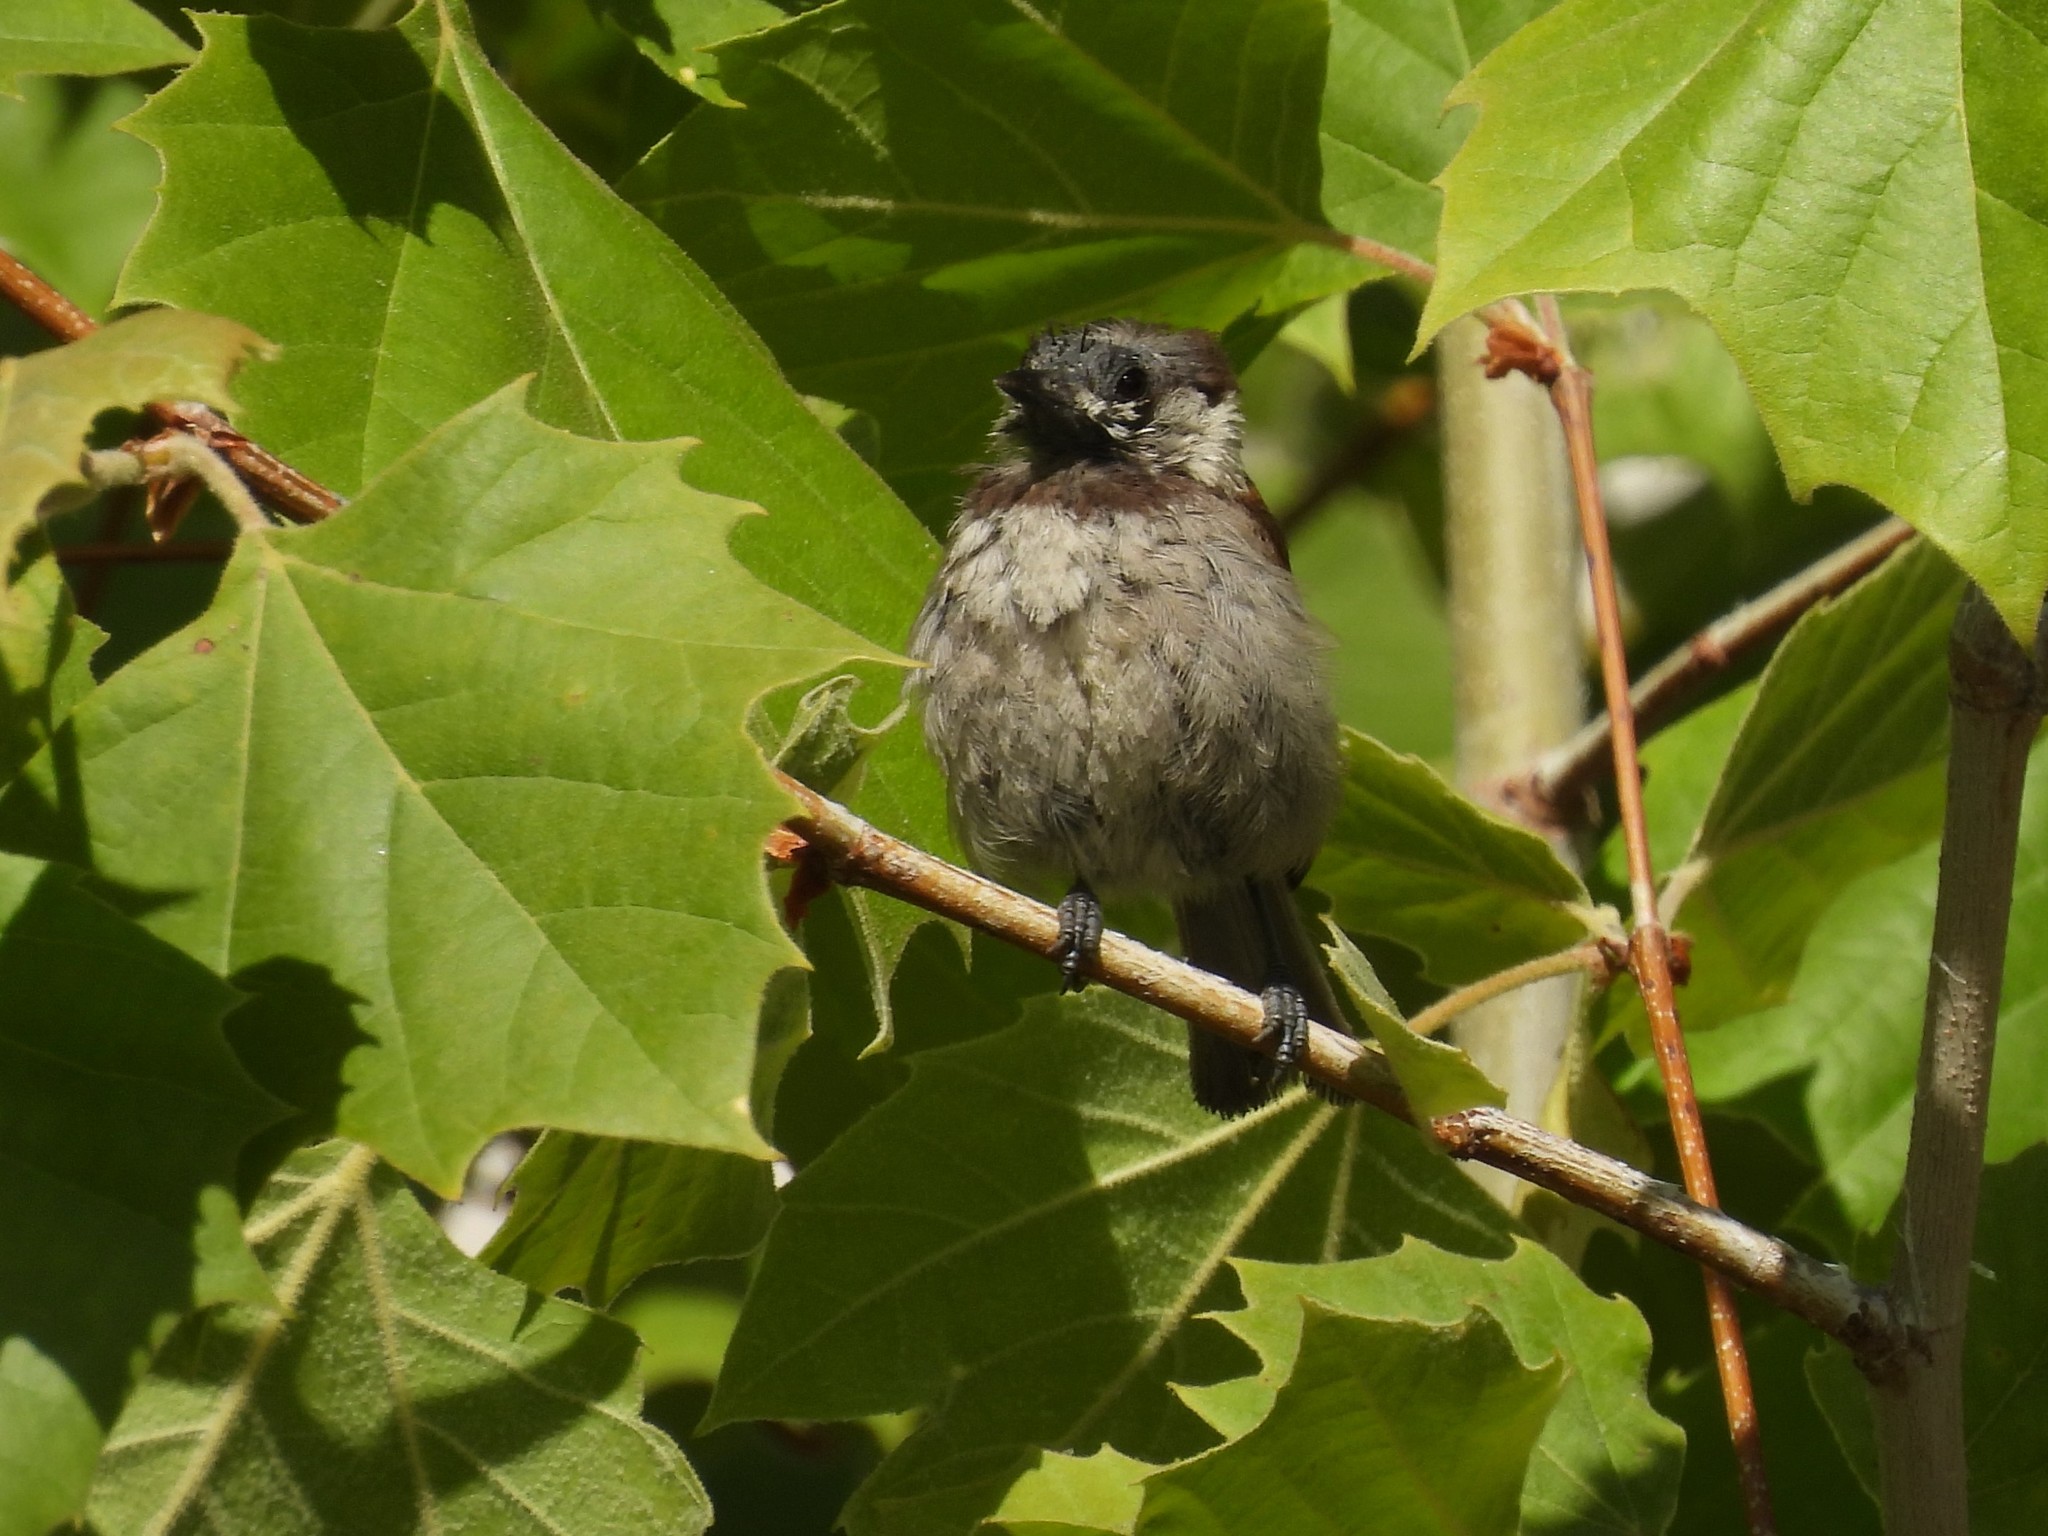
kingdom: Animalia
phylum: Chordata
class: Aves
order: Passeriformes
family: Paridae
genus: Poecile
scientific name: Poecile rufescens
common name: Chestnut-backed chickadee
